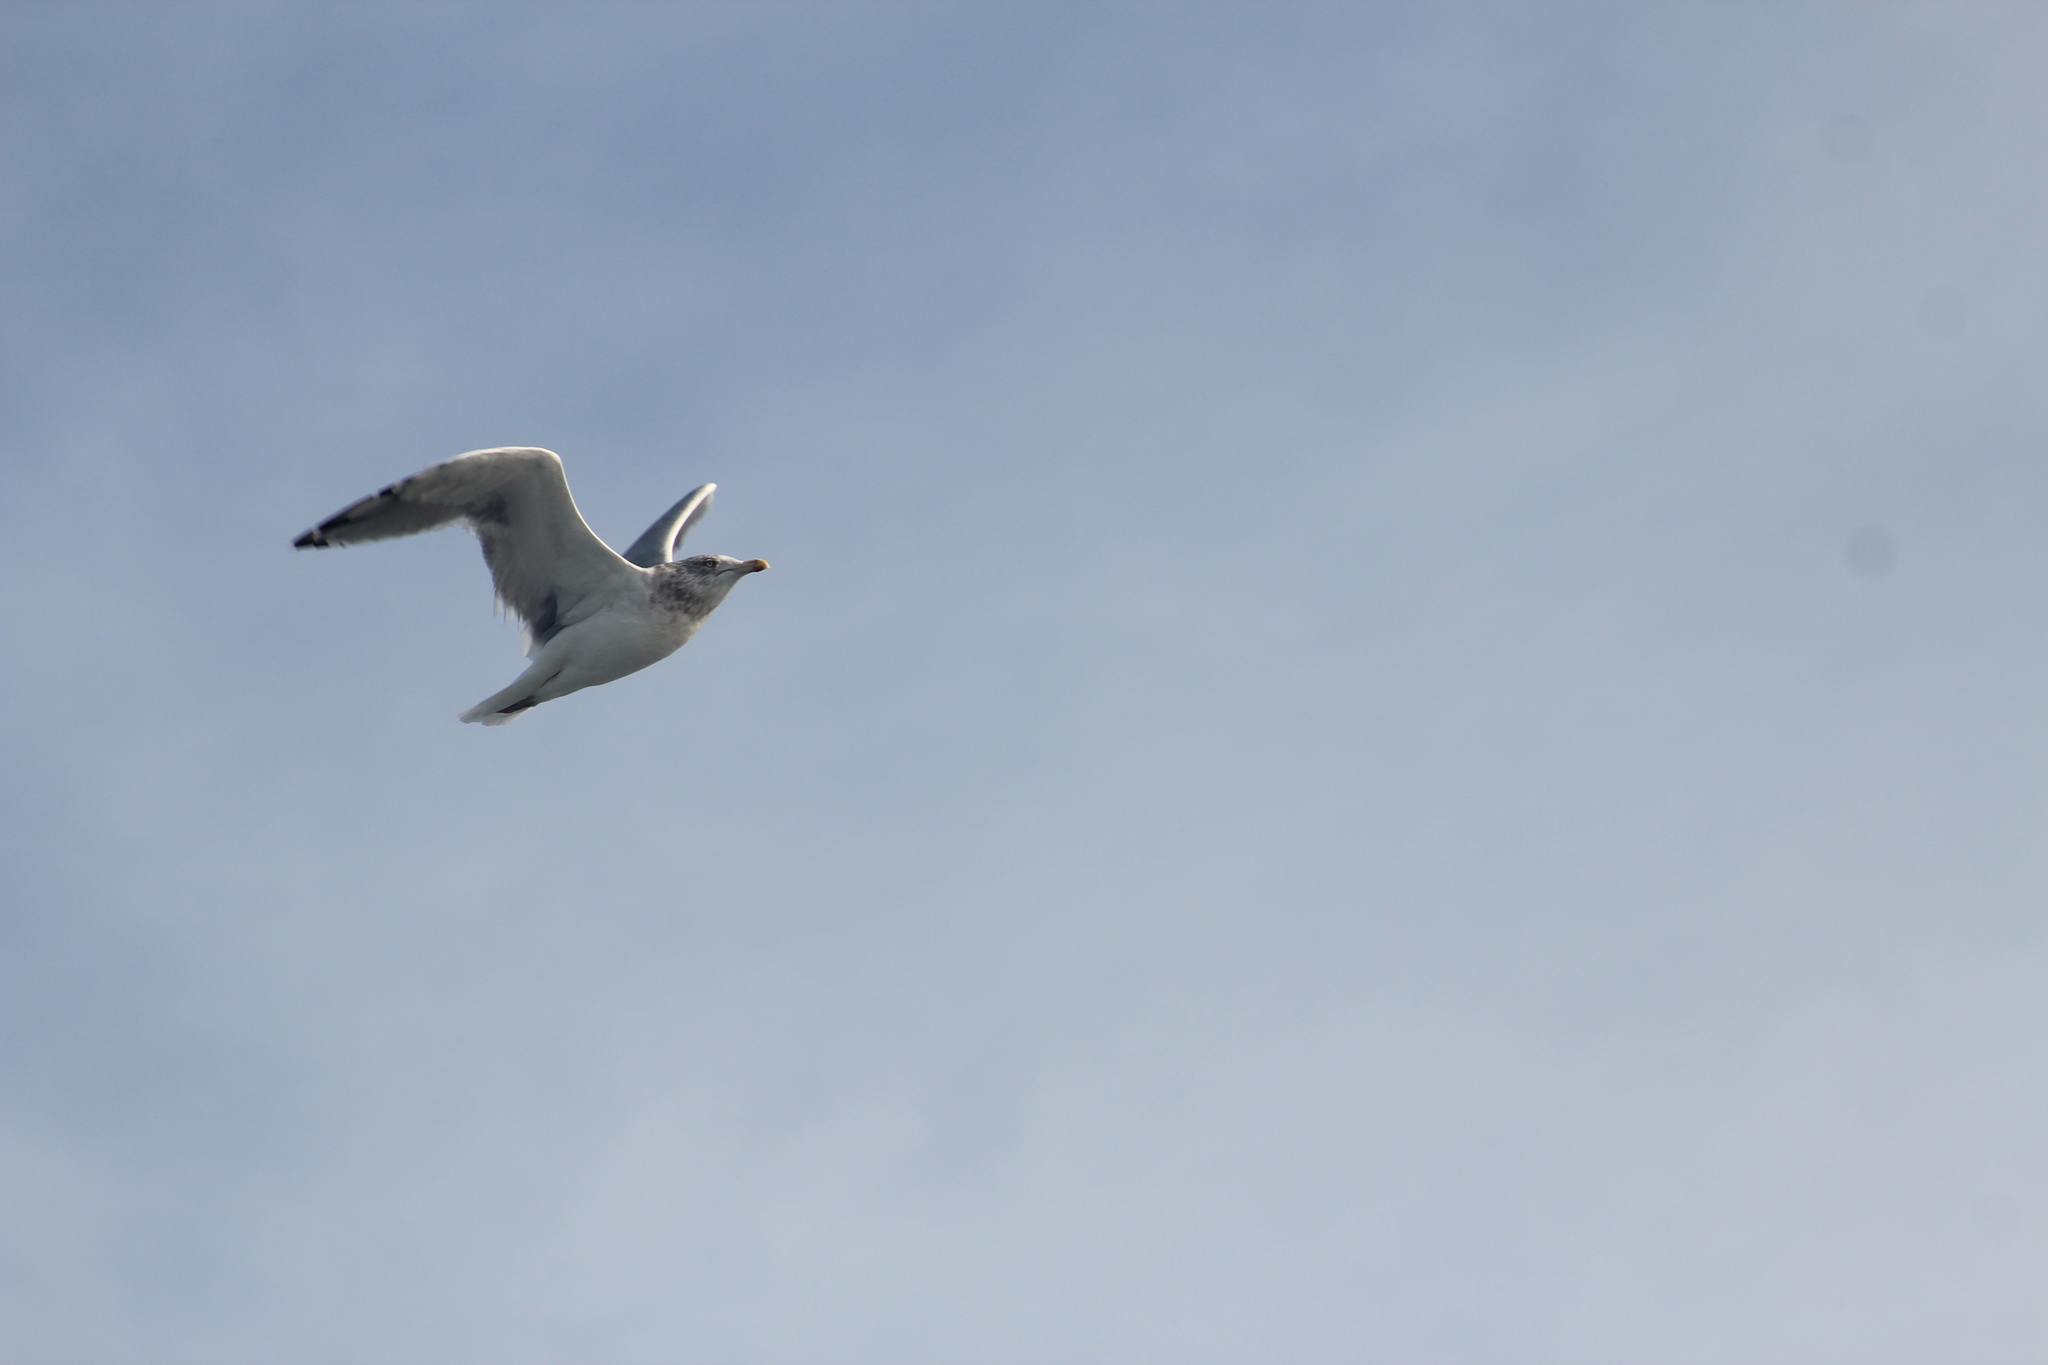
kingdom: Animalia
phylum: Chordata
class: Aves
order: Charadriiformes
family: Laridae
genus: Larus
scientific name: Larus argentatus
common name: Herring gull
